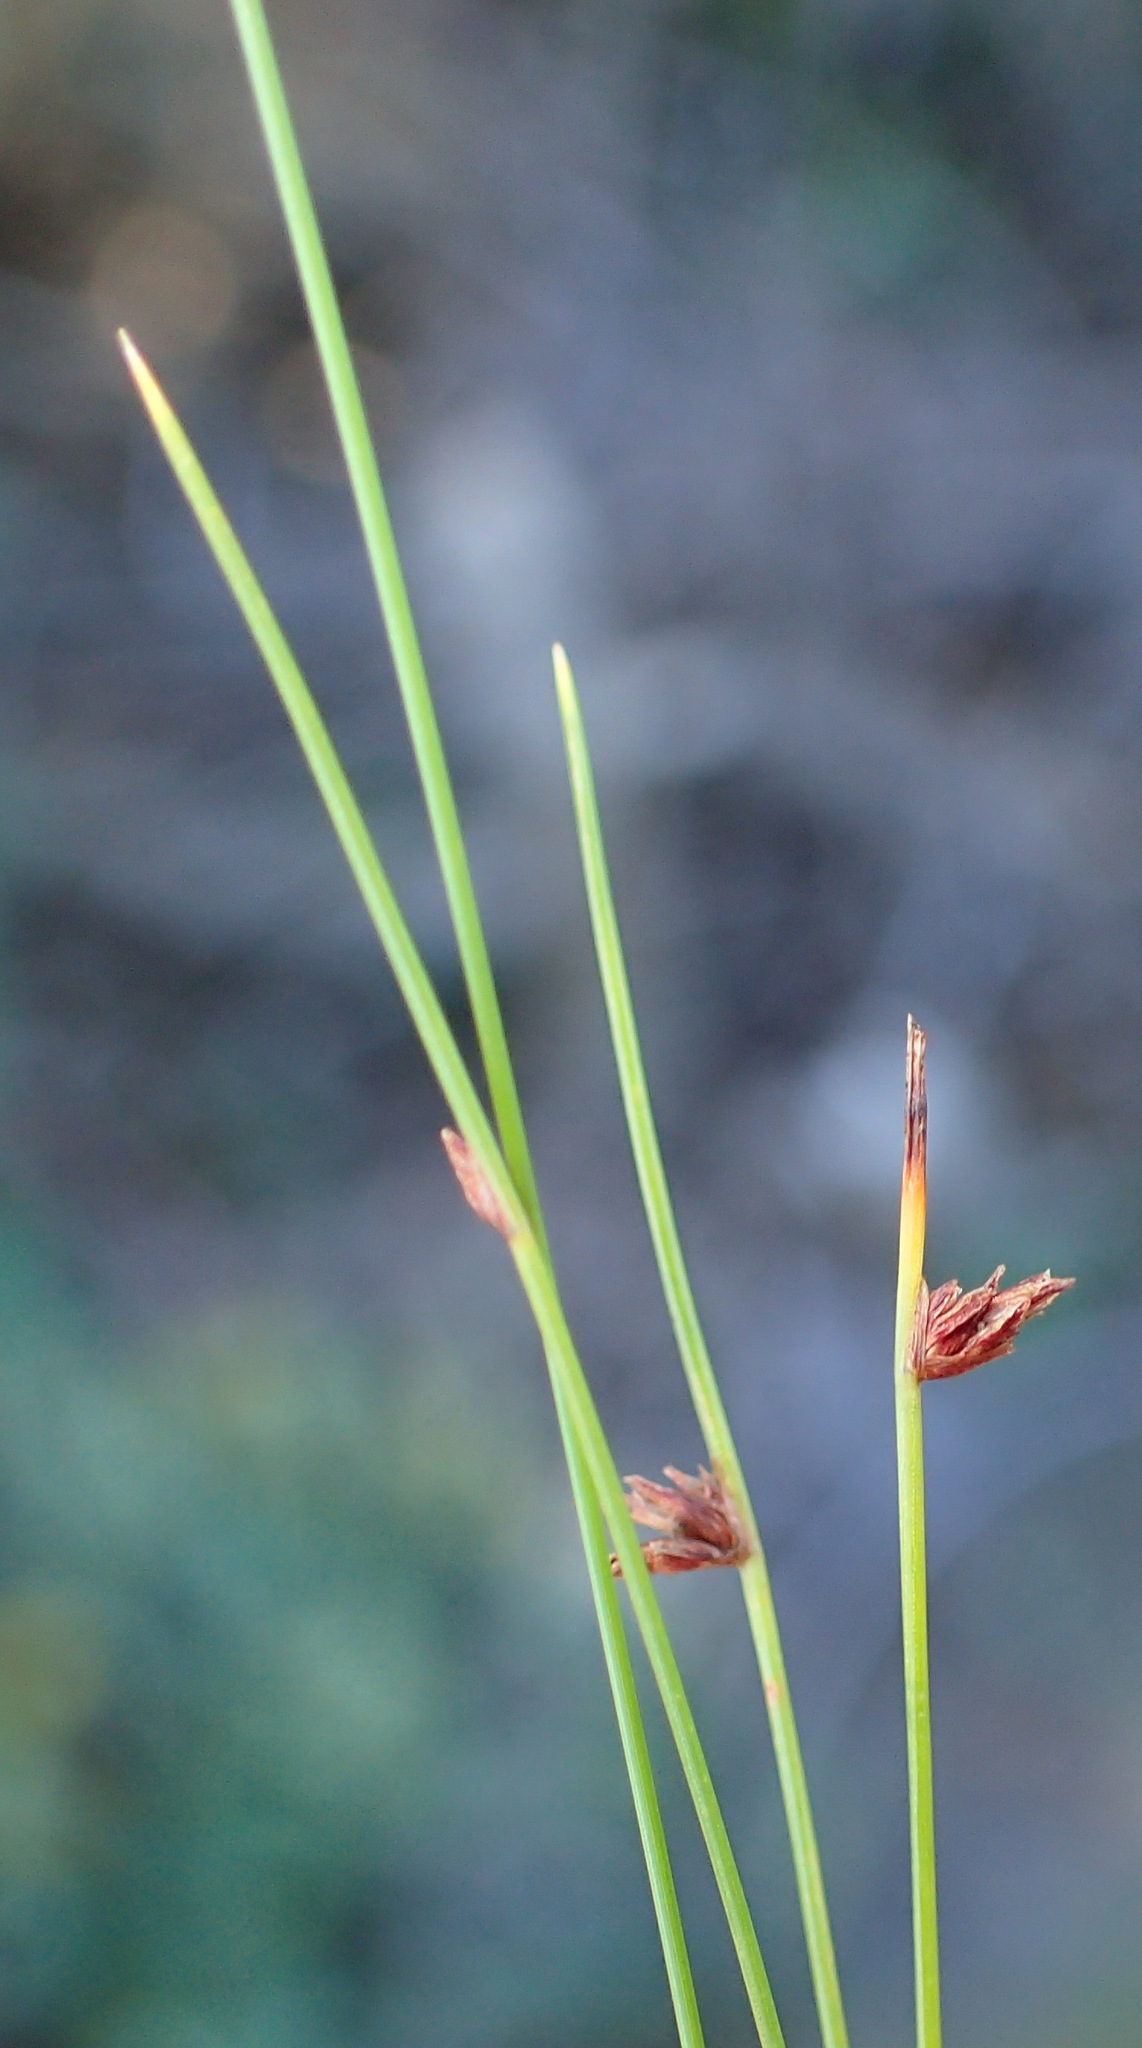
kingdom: Plantae
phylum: Tracheophyta
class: Liliopsida
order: Poales
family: Cyperaceae
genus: Ficinia
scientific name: Ficinia acuminata
